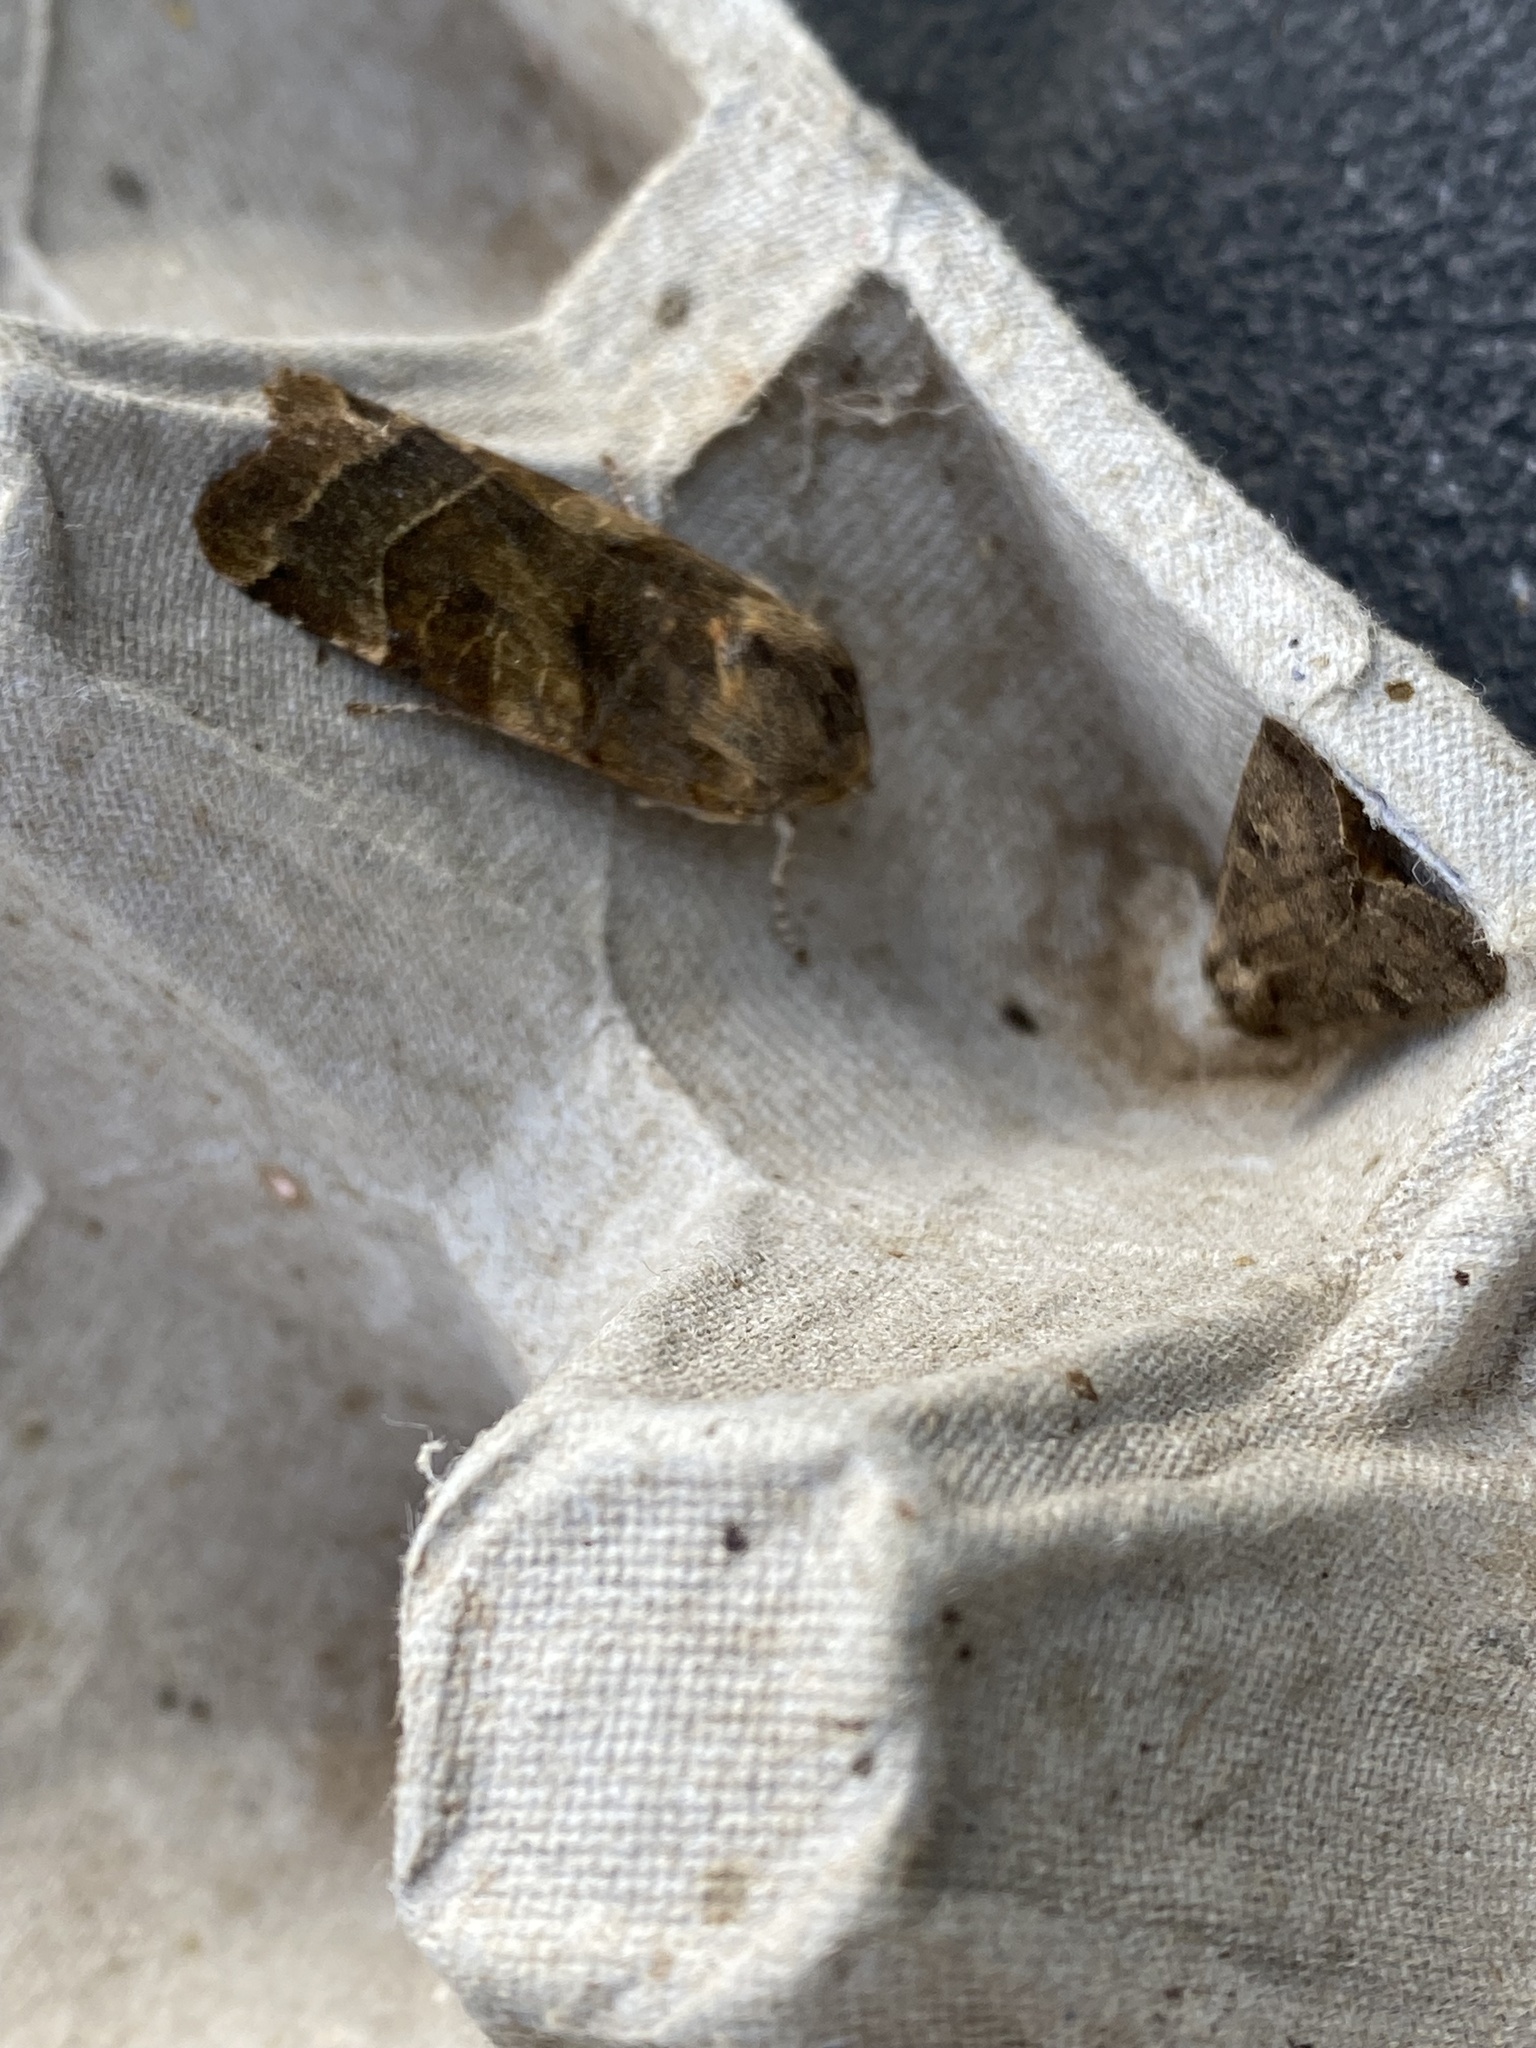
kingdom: Animalia
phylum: Arthropoda
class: Insecta
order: Lepidoptera
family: Noctuidae
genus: Noctua
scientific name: Noctua fimbriata
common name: Broad-bordered yellow underwing
